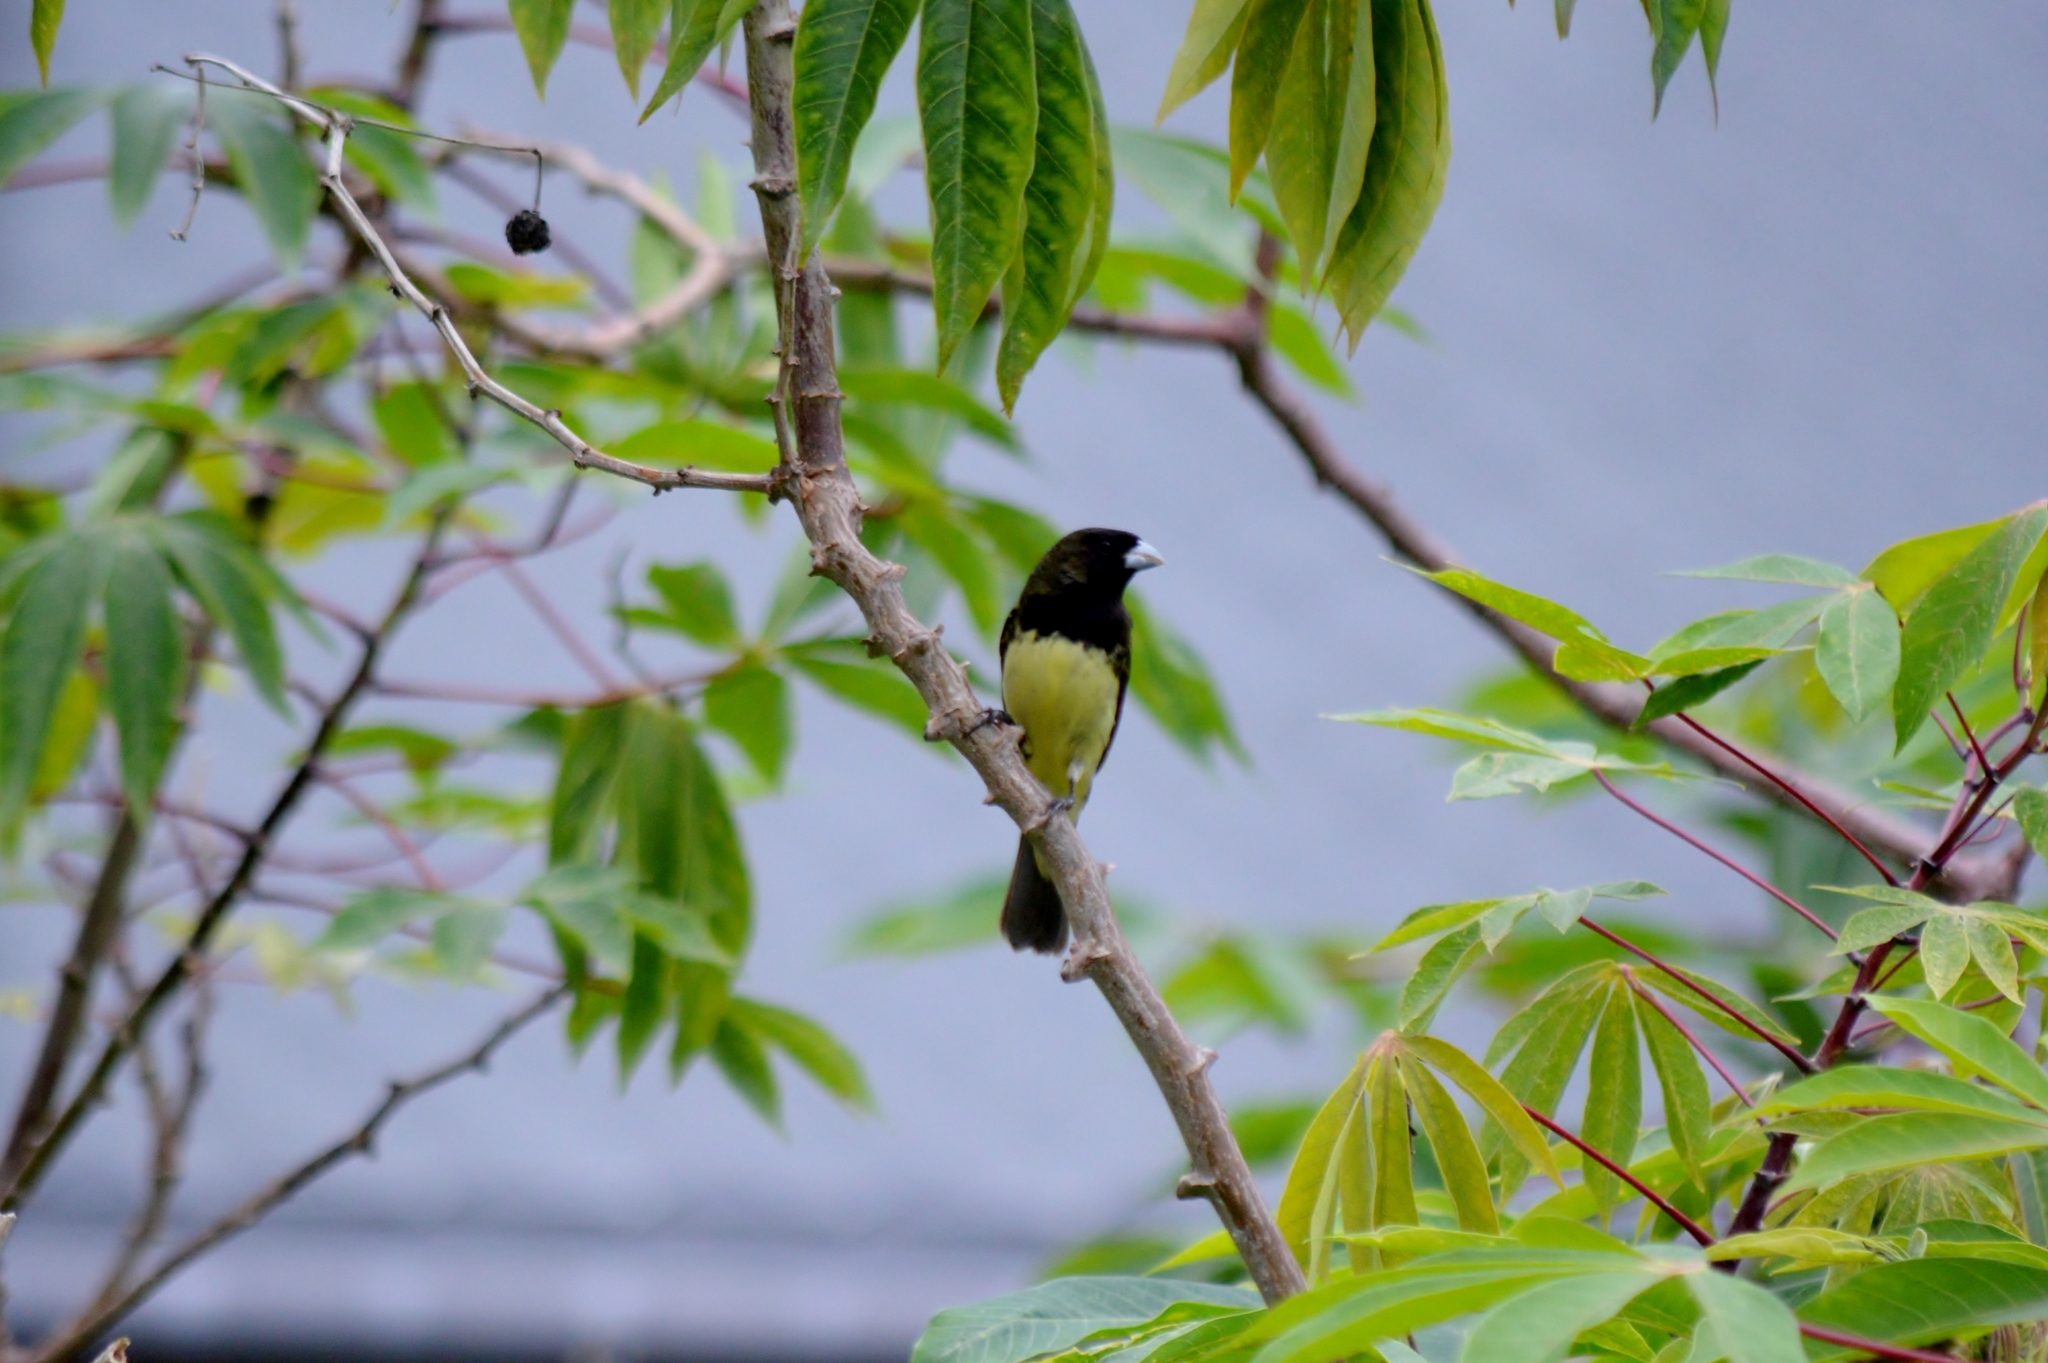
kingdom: Animalia
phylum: Chordata
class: Aves
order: Passeriformes
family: Thraupidae
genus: Sporophila
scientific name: Sporophila nigricollis
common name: Yellow-bellied seedeater
